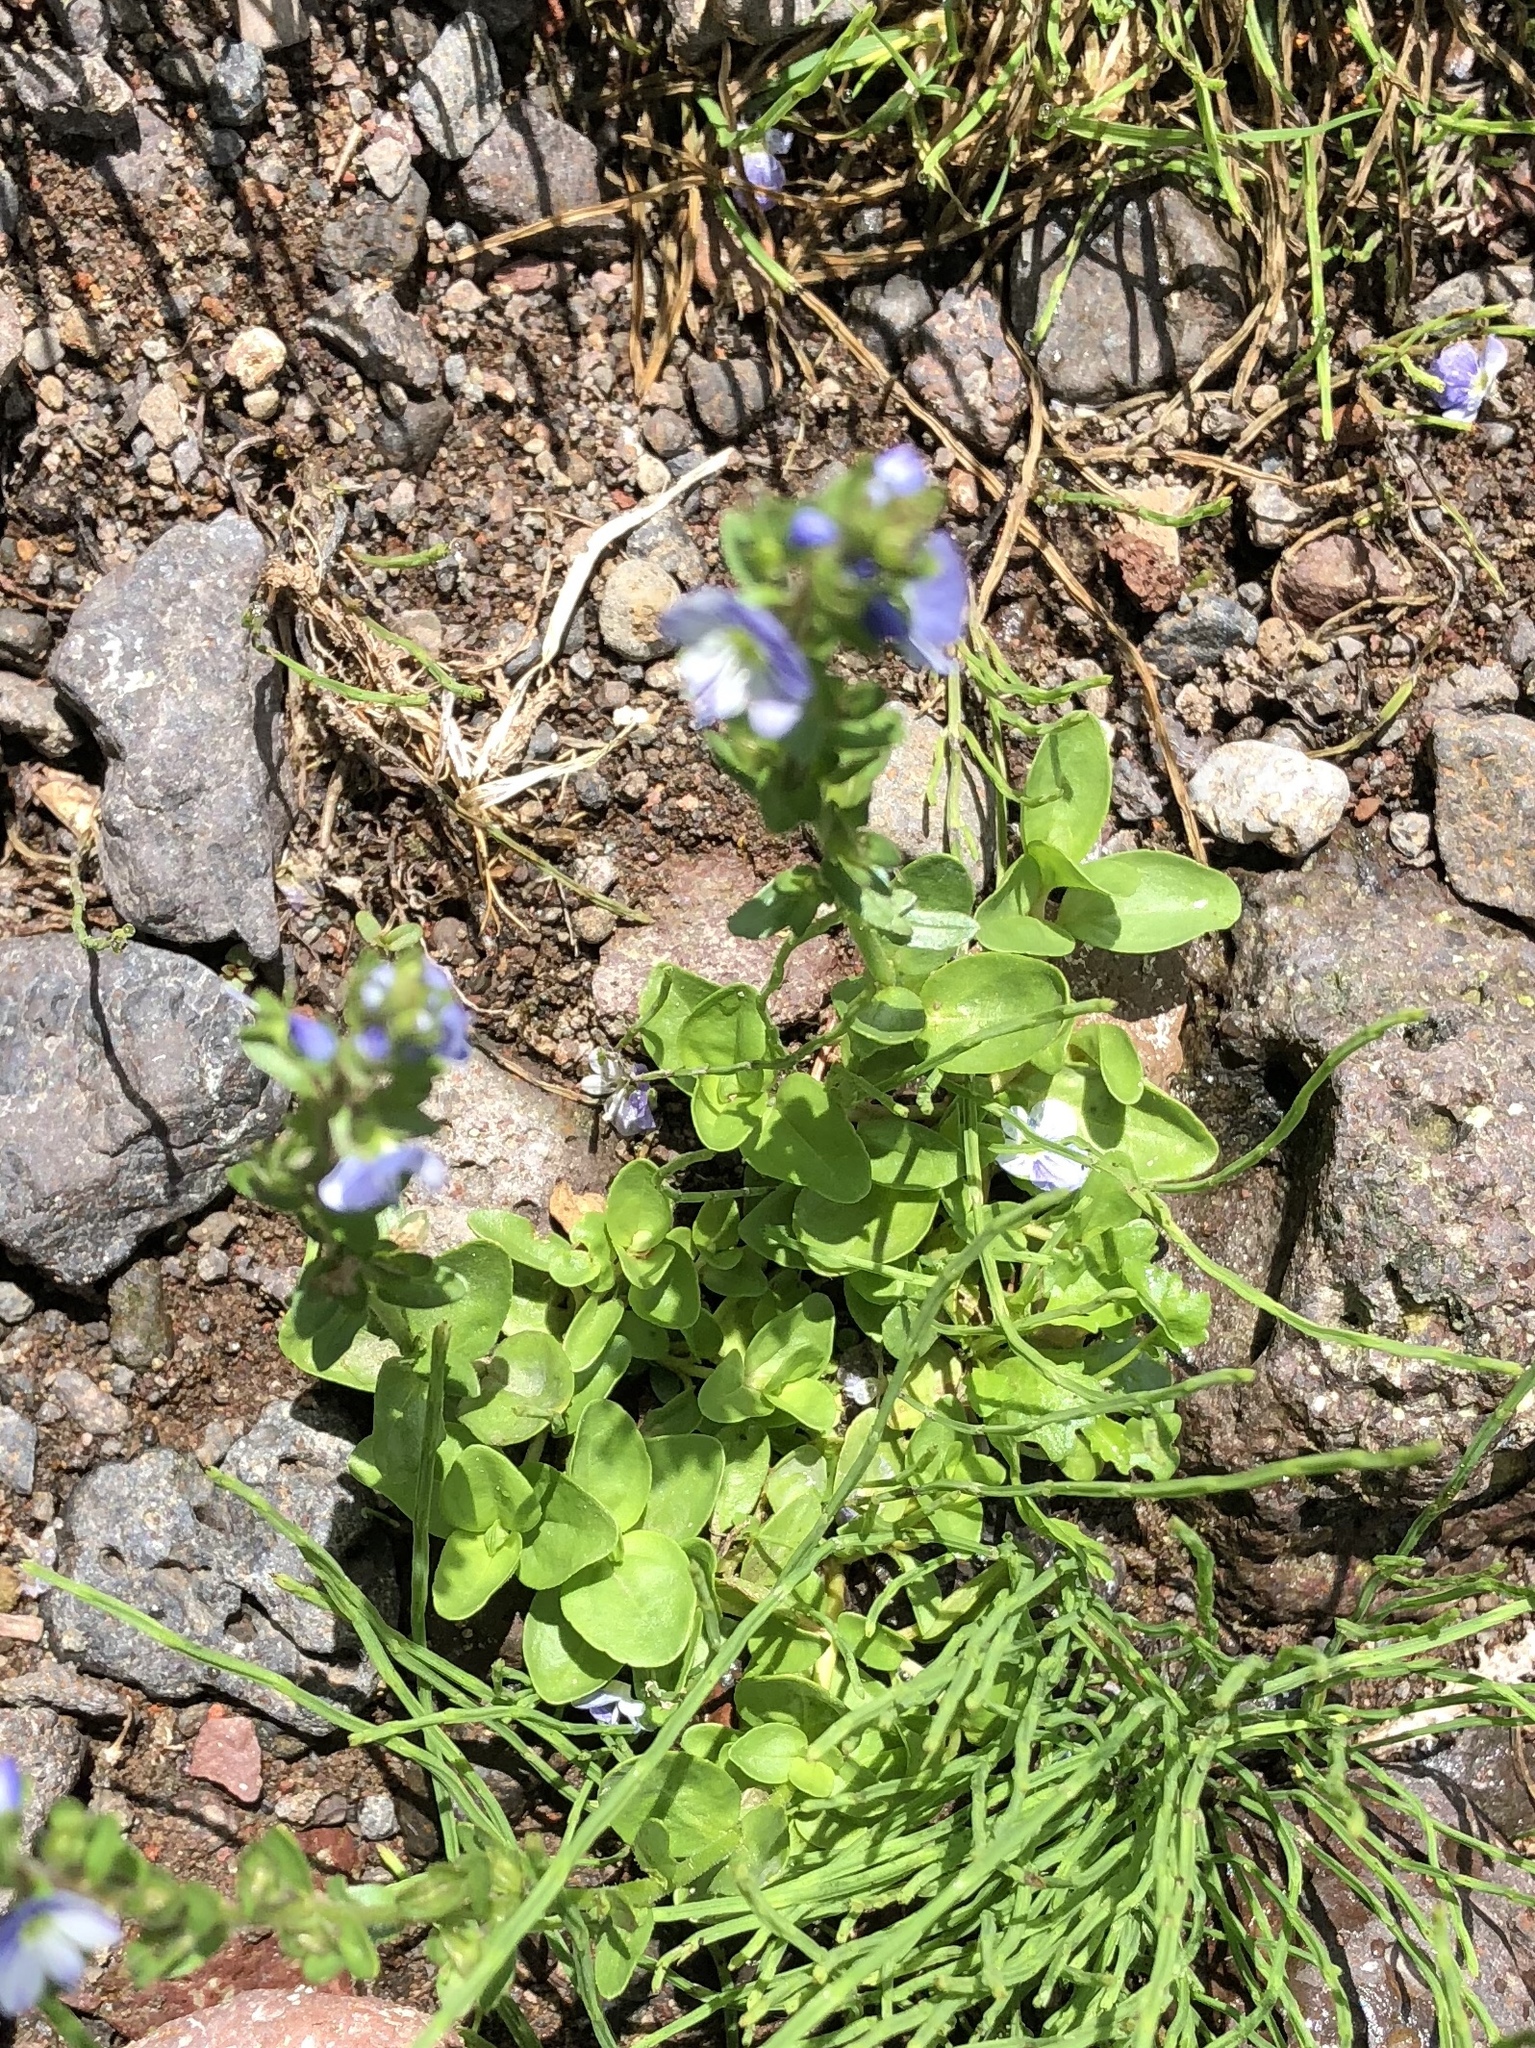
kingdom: Plantae
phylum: Tracheophyta
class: Magnoliopsida
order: Lamiales
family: Plantaginaceae
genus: Veronica
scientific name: Veronica serpyllifolia
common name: Thyme-leaved speedwell
